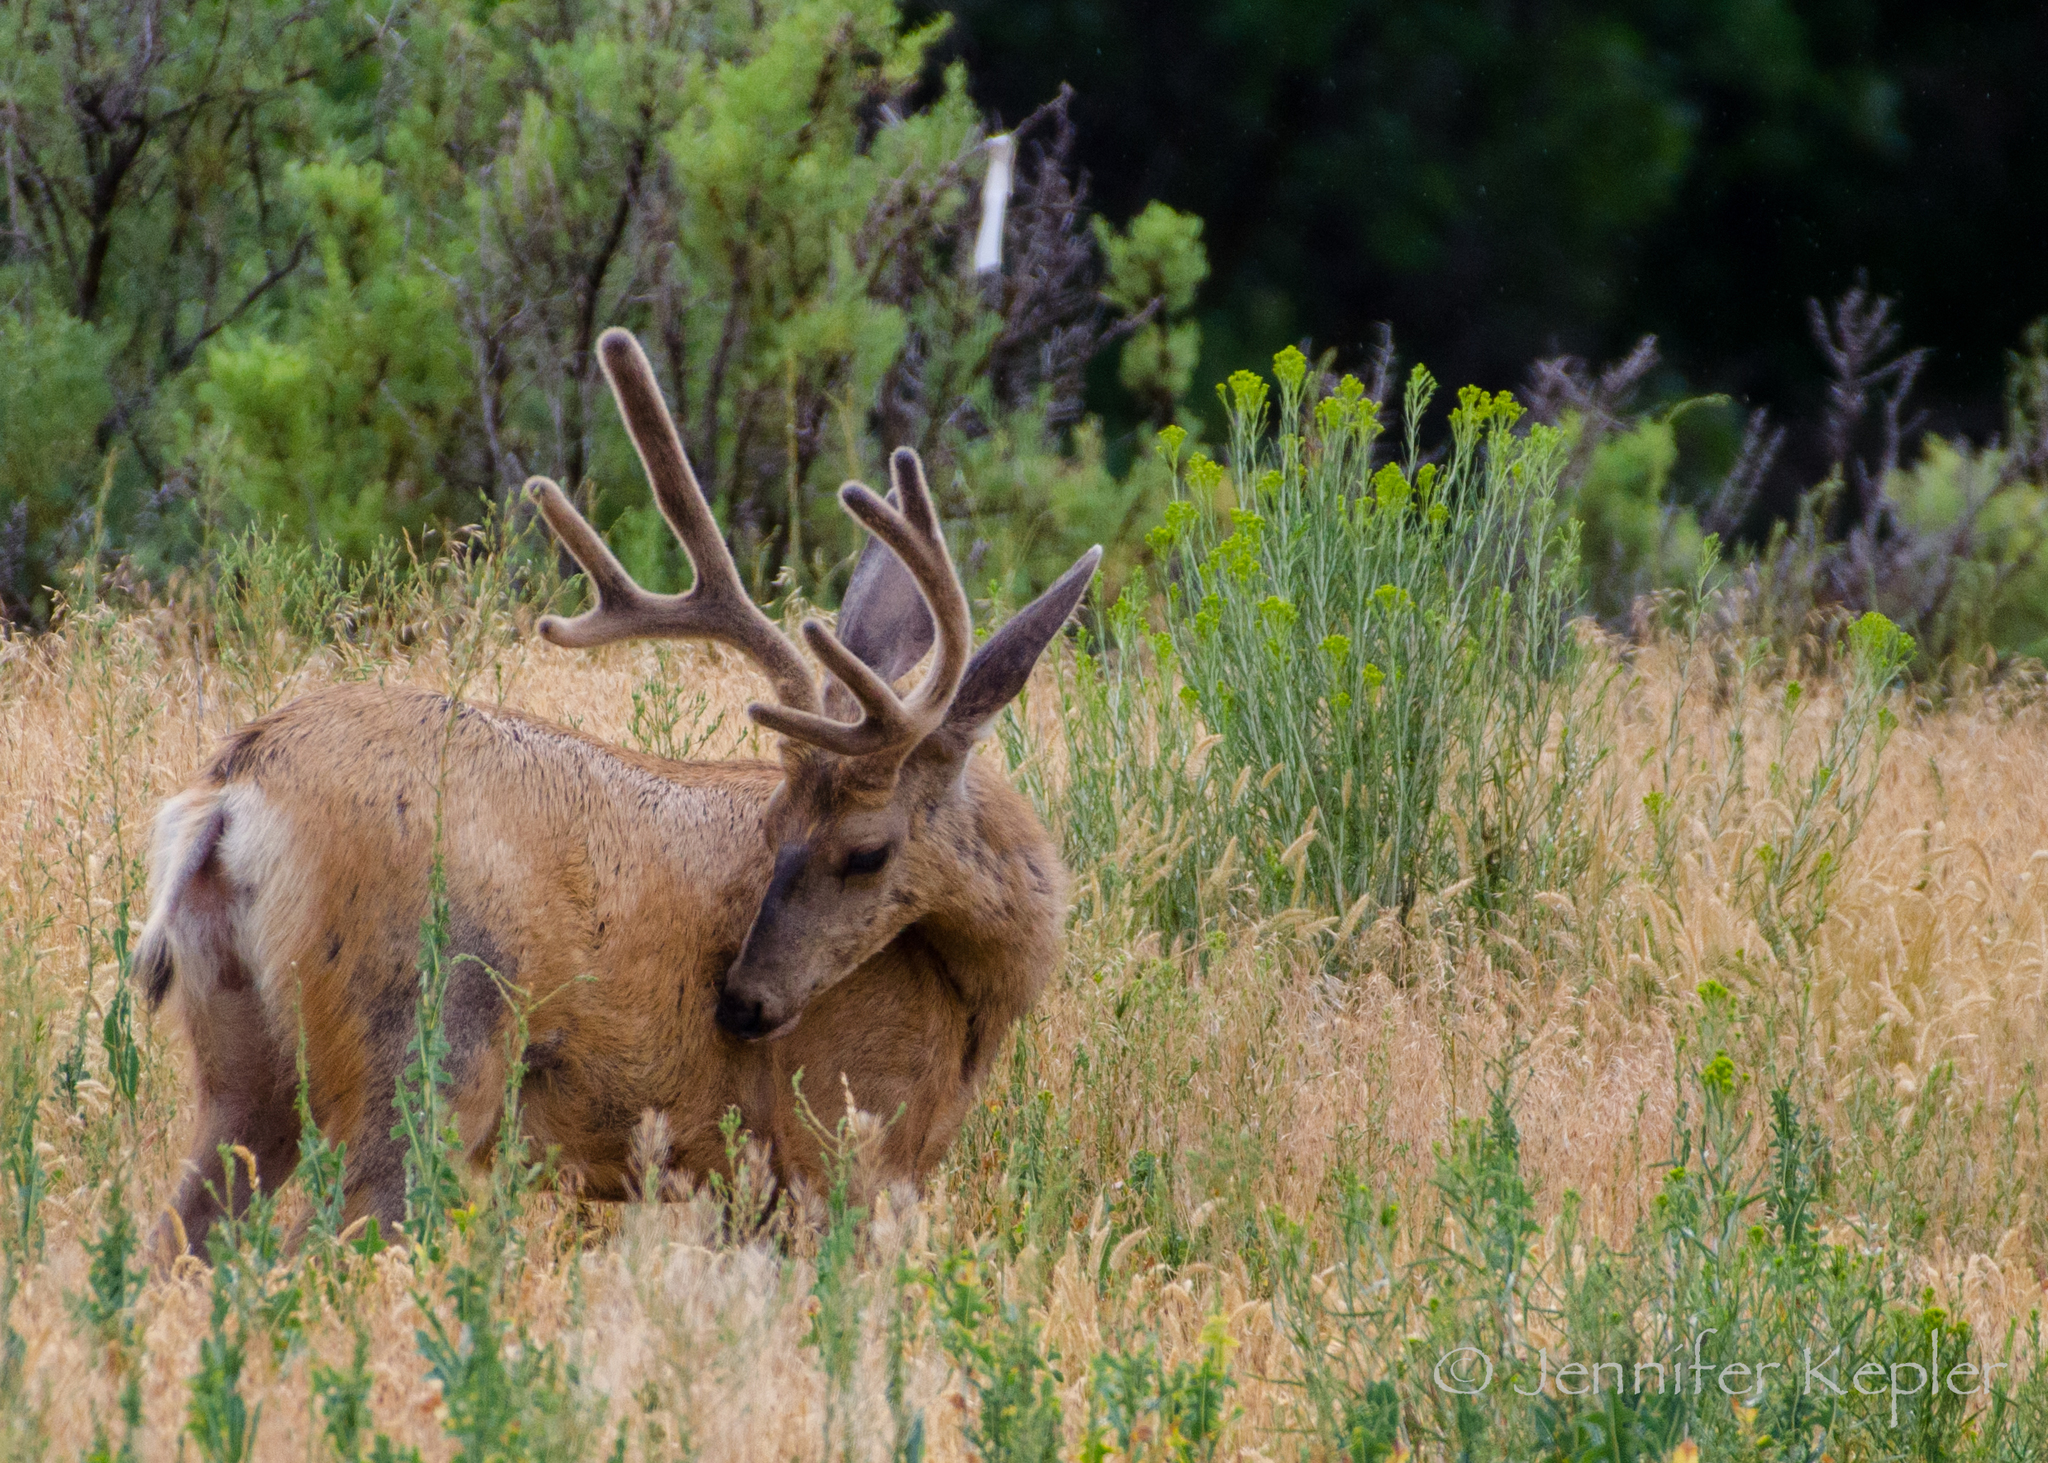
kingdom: Animalia
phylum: Chordata
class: Mammalia
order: Artiodactyla
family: Cervidae
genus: Odocoileus
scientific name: Odocoileus hemionus
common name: Mule deer
